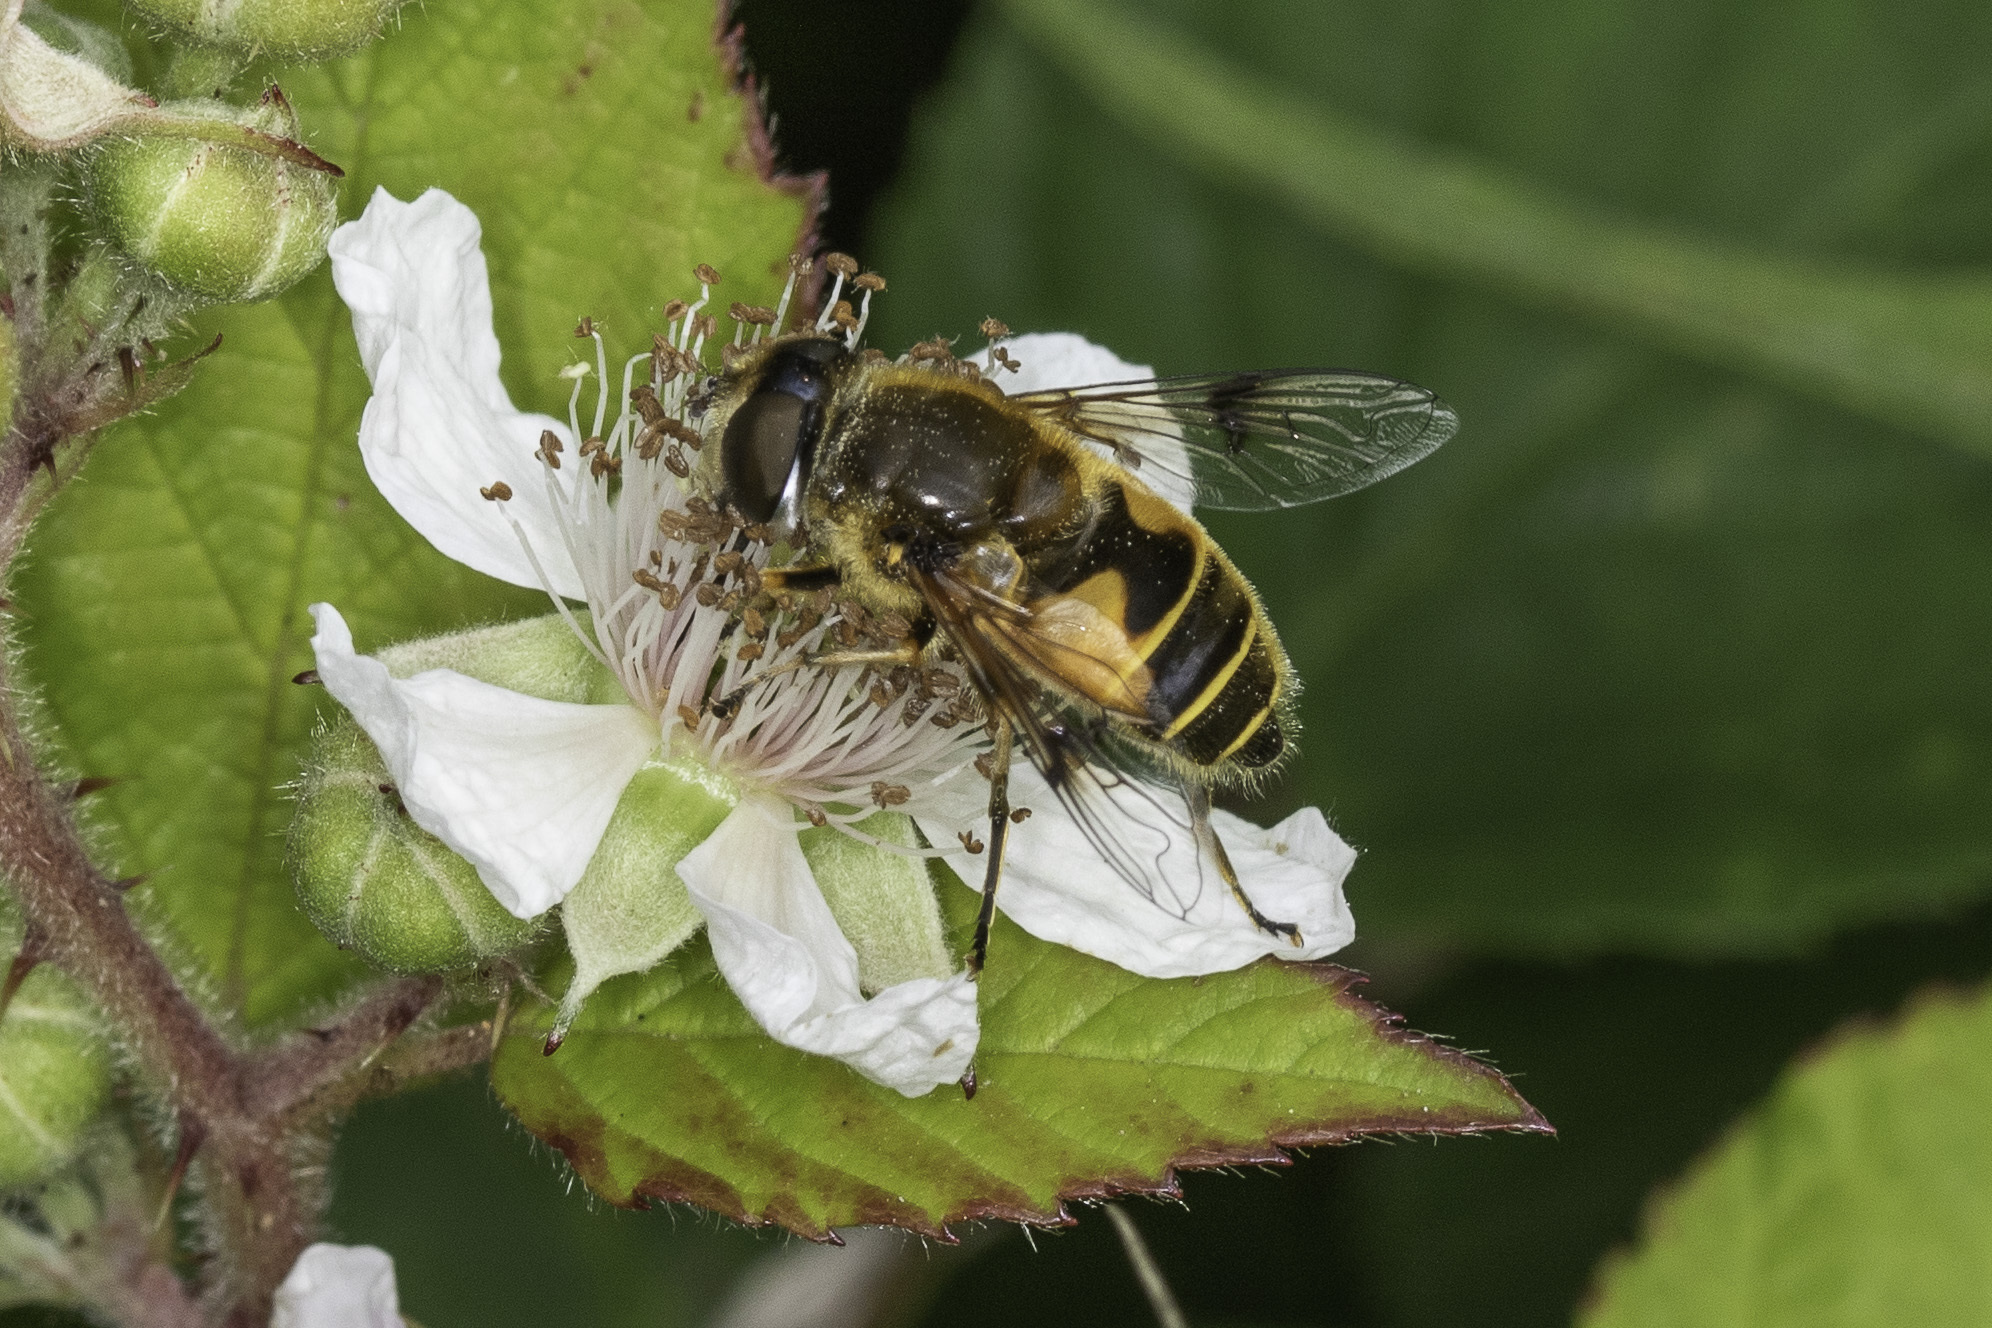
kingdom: Animalia
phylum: Arthropoda
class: Insecta
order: Diptera
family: Syrphidae
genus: Cheilosia
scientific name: Cheilosia morio
